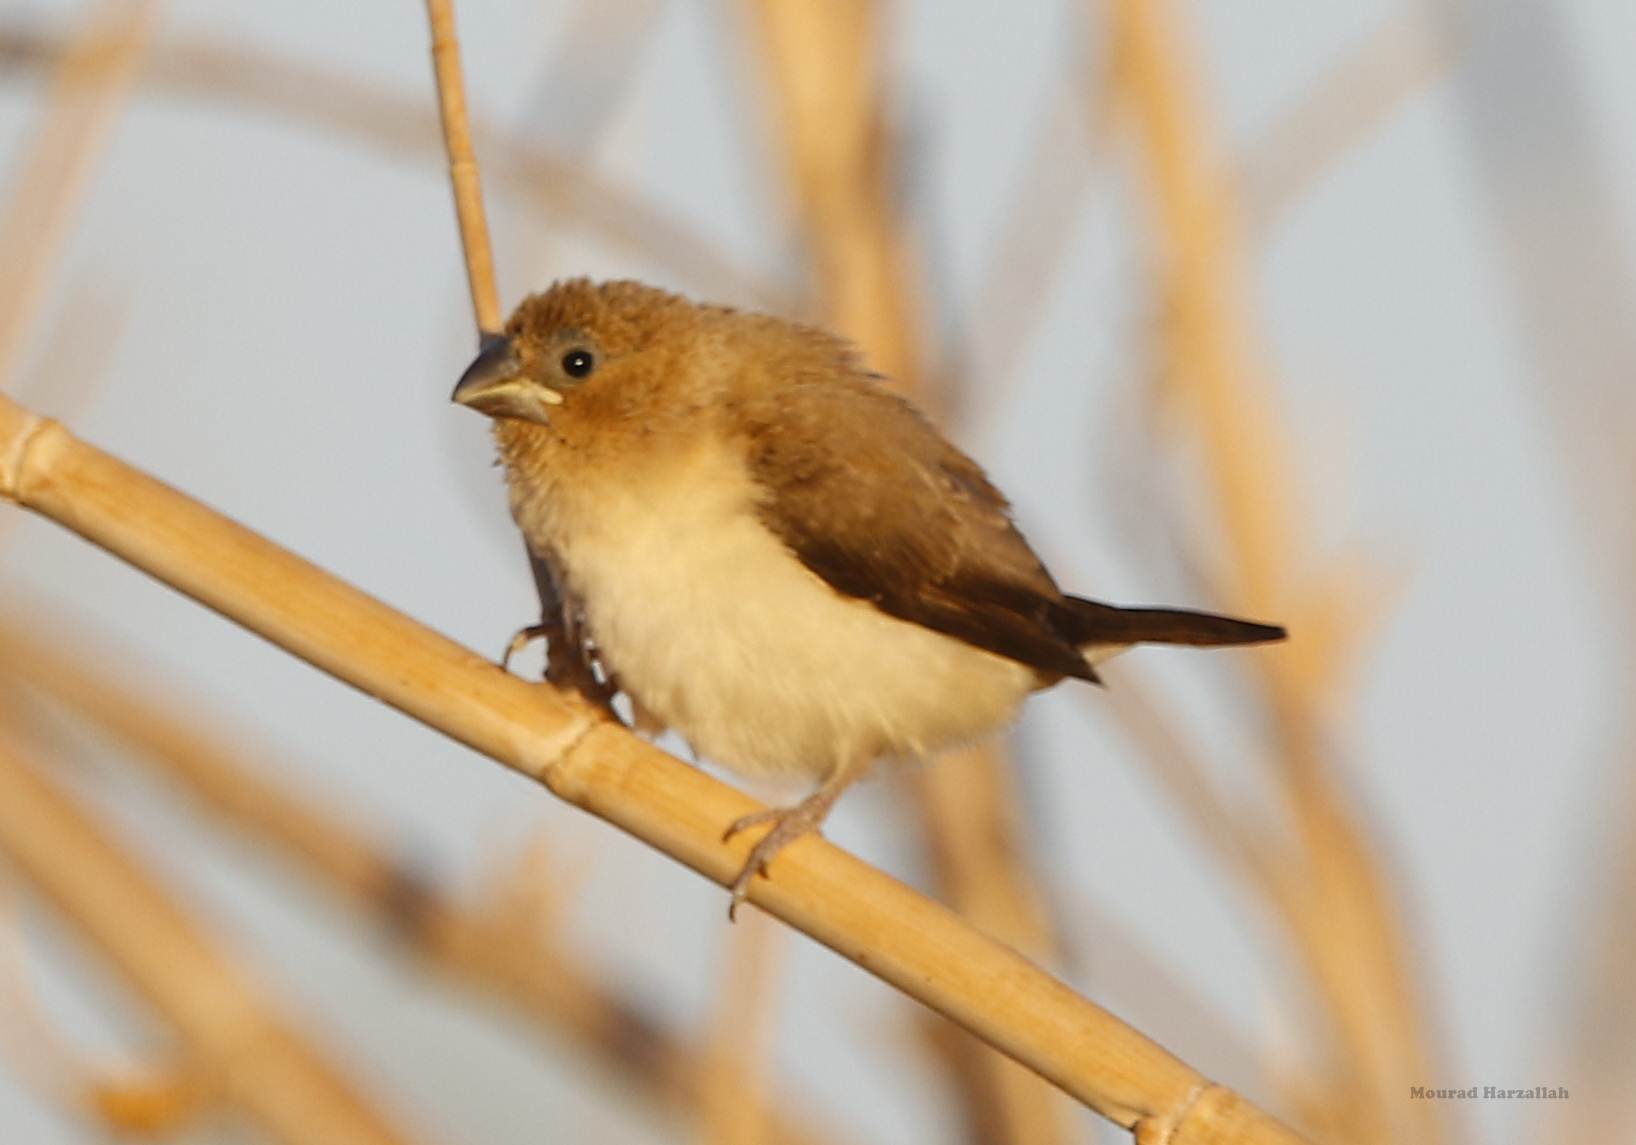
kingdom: Animalia
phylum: Chordata
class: Aves
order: Passeriformes
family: Estrildidae
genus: Euodice
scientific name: Euodice cantans
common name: African silverbill
